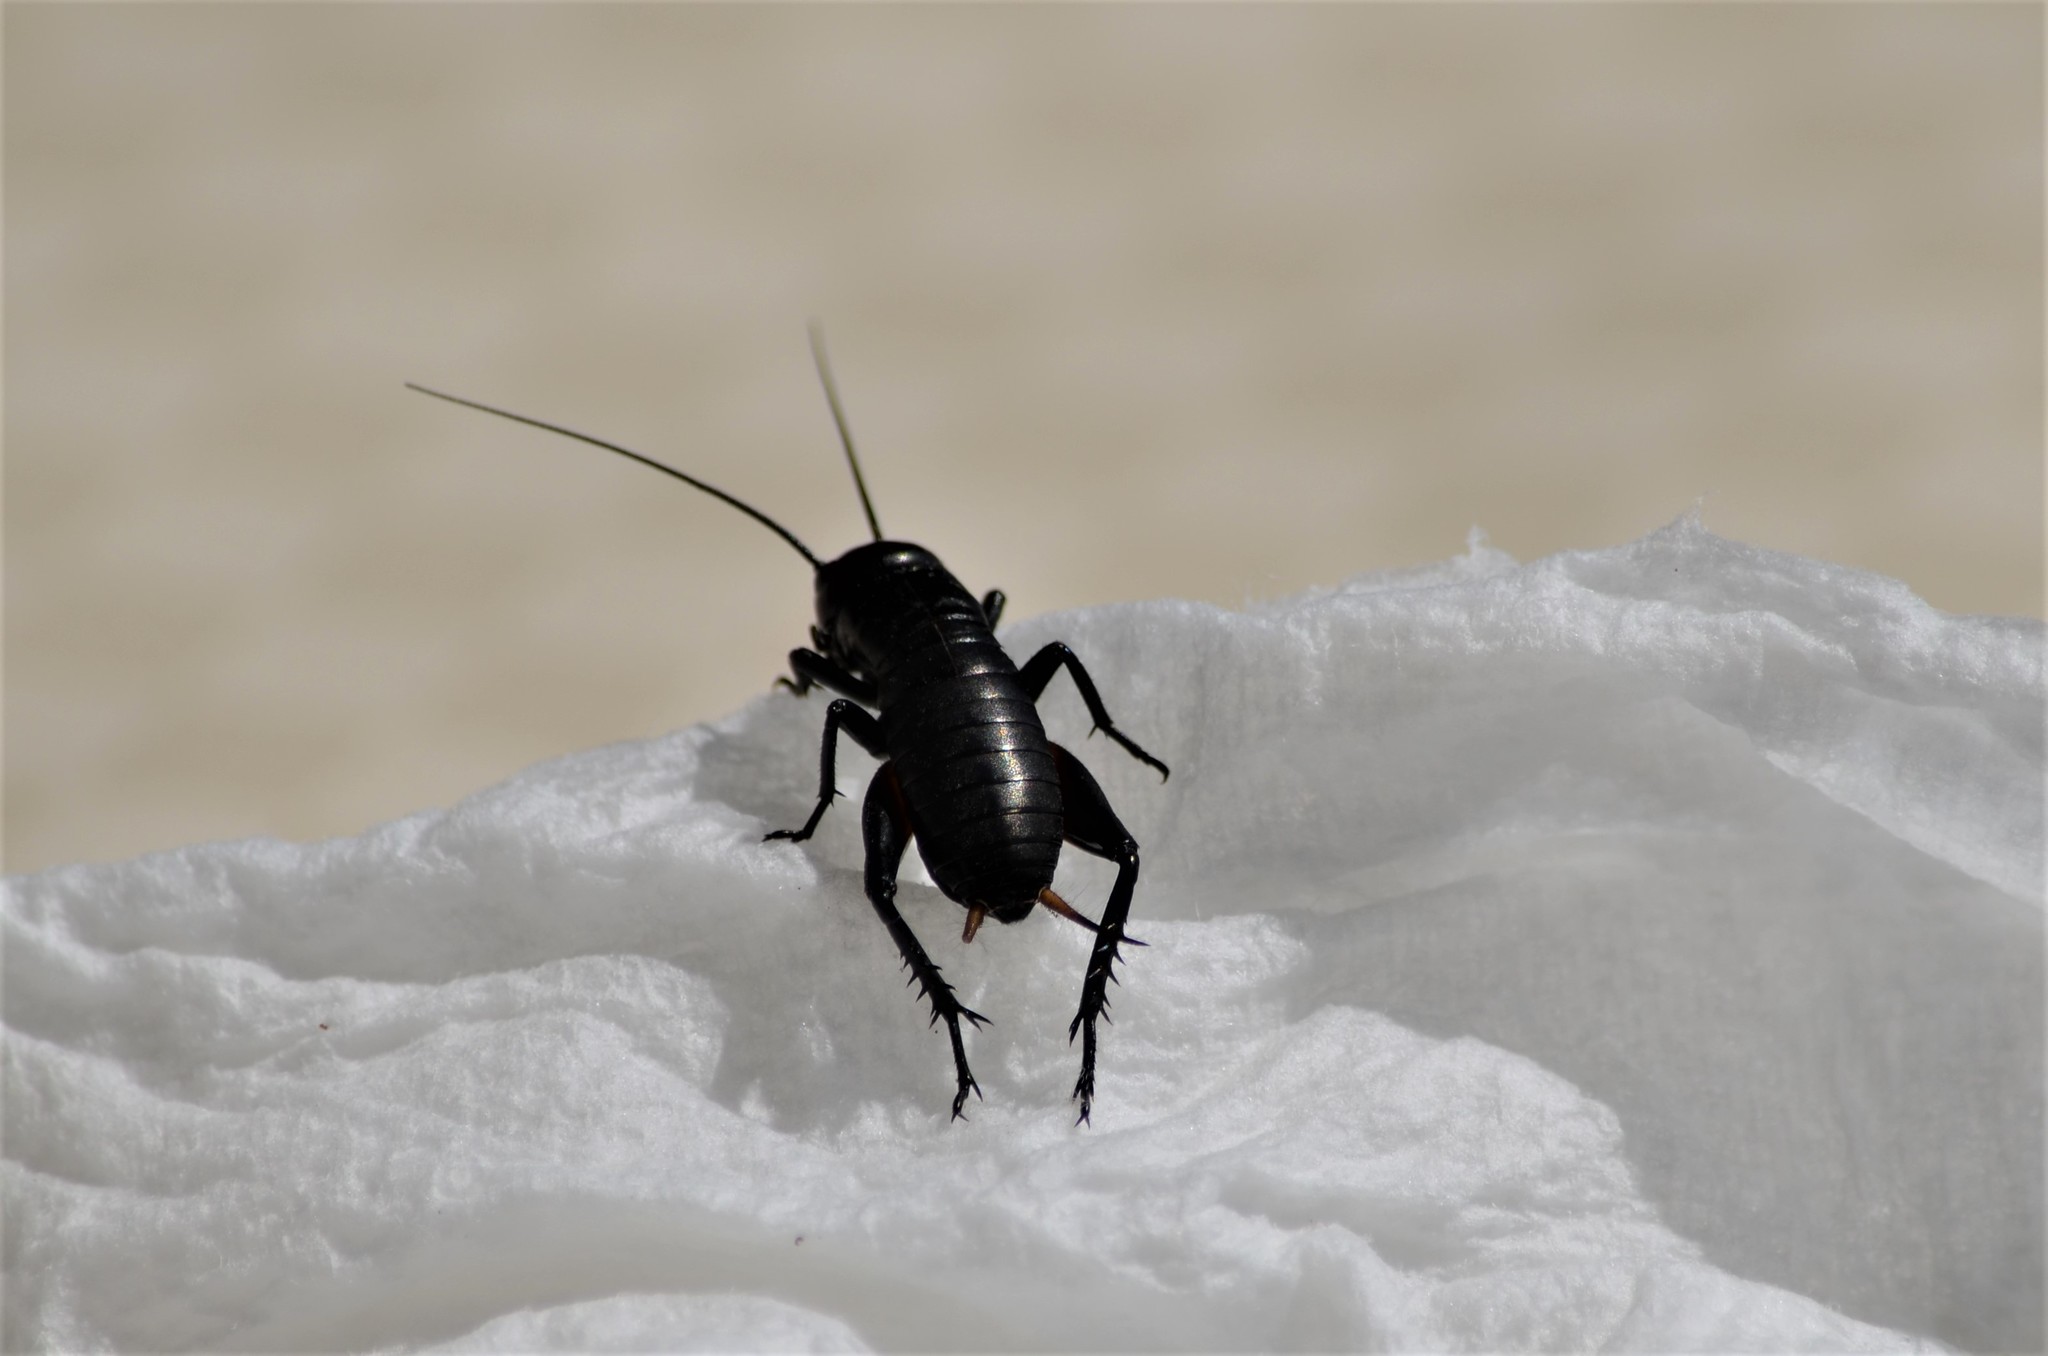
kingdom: Animalia
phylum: Arthropoda
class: Insecta
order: Orthoptera
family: Gryllidae
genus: Gryllus
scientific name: Gryllus campestris
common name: Field cricket
